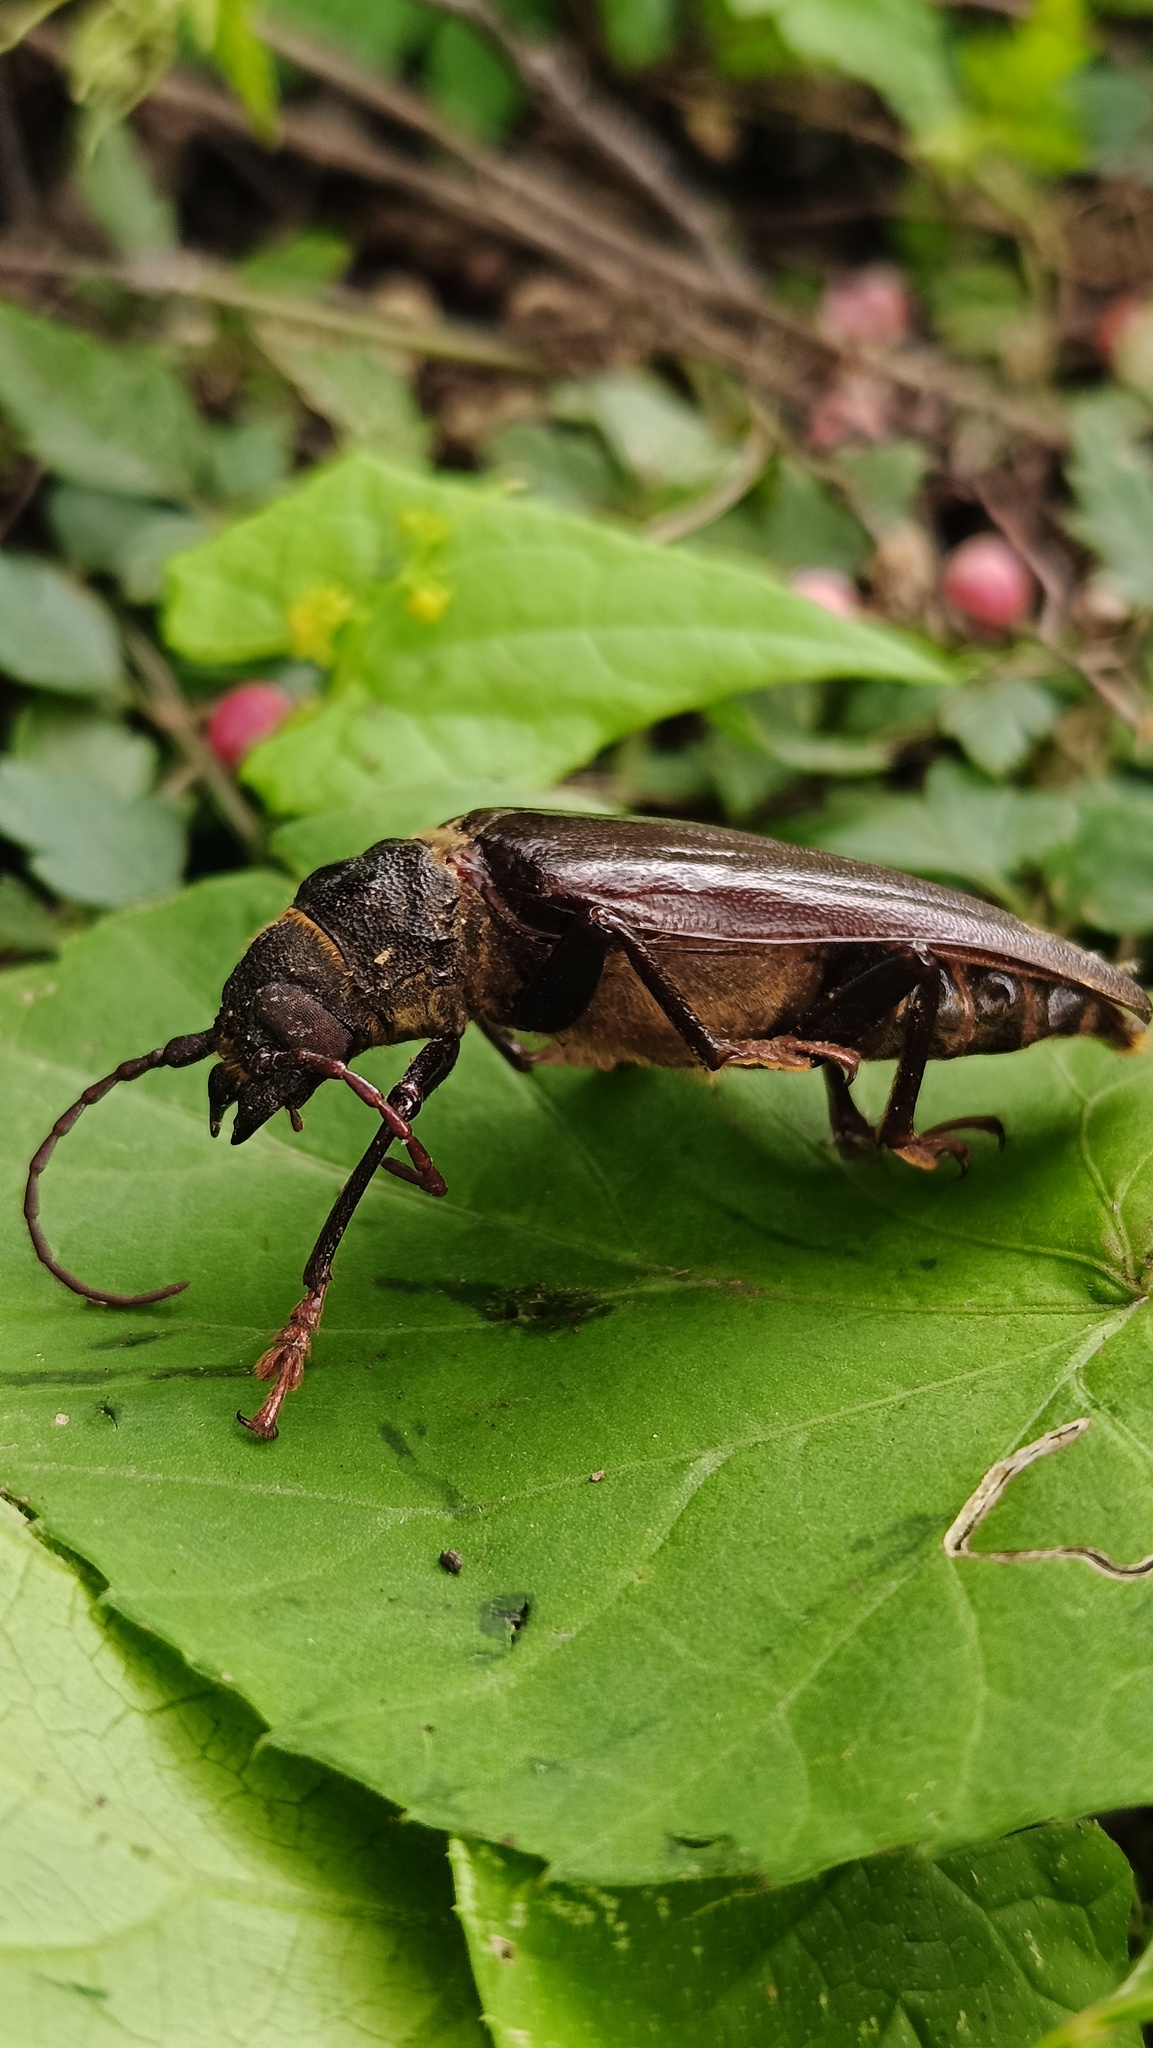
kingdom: Animalia
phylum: Arthropoda
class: Insecta
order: Coleoptera
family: Cerambycidae
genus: Aplagiognathus
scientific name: Aplagiognathus spinosus
